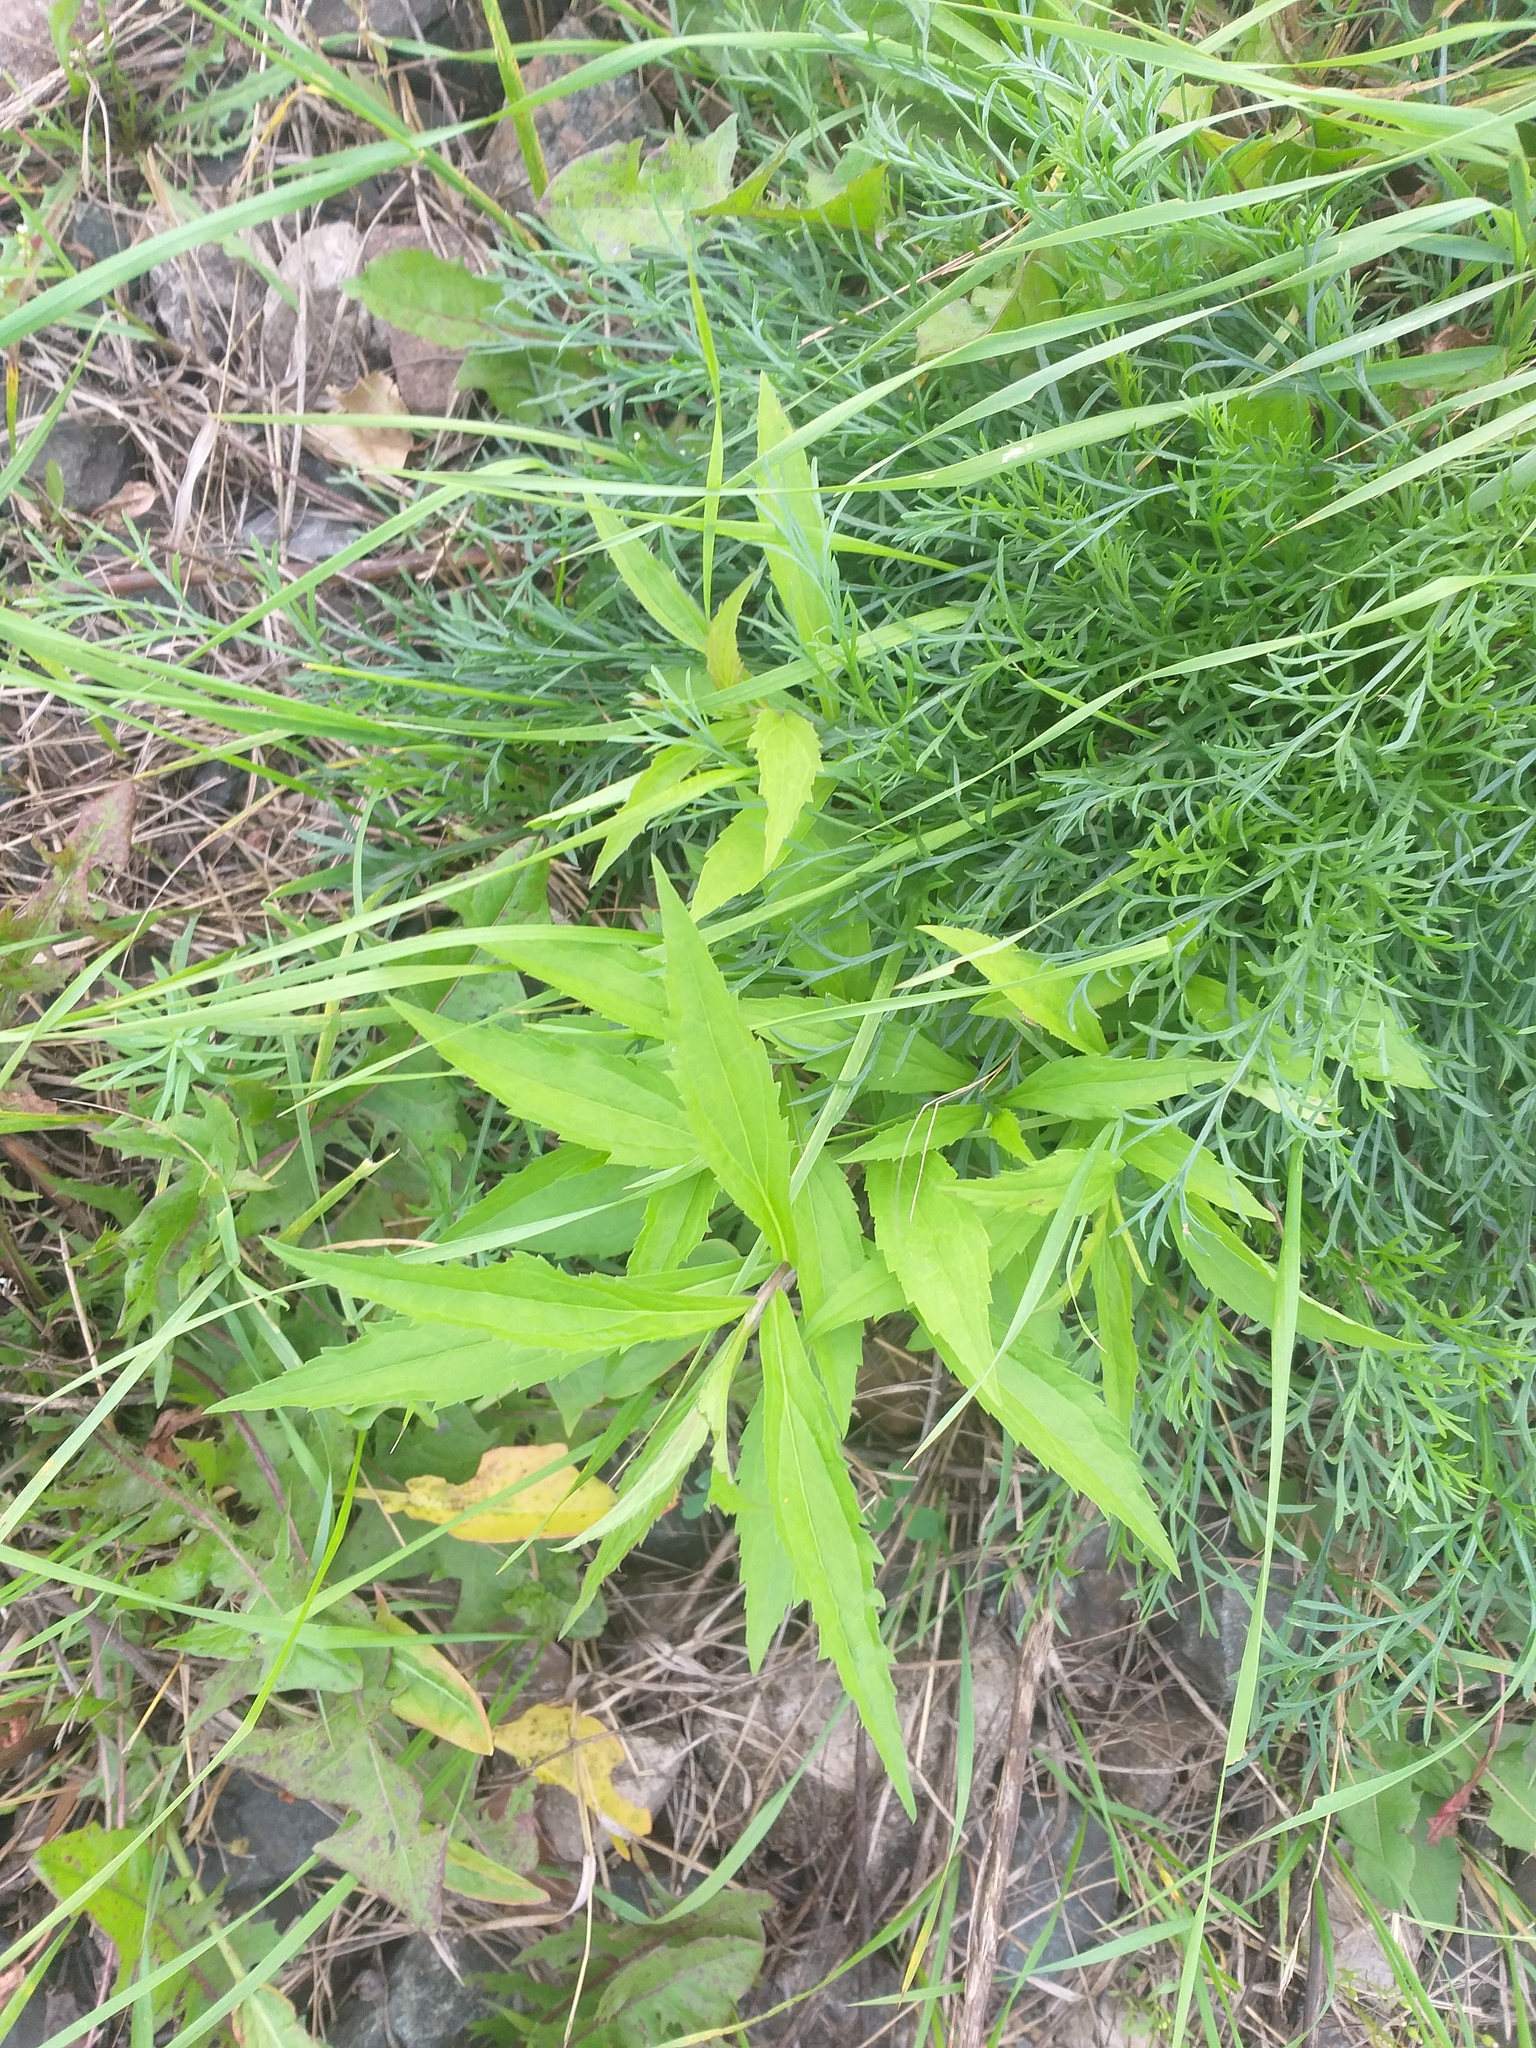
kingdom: Plantae
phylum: Tracheophyta
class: Magnoliopsida
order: Asterales
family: Asteraceae
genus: Solidago
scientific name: Solidago canadensis
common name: Canada goldenrod
